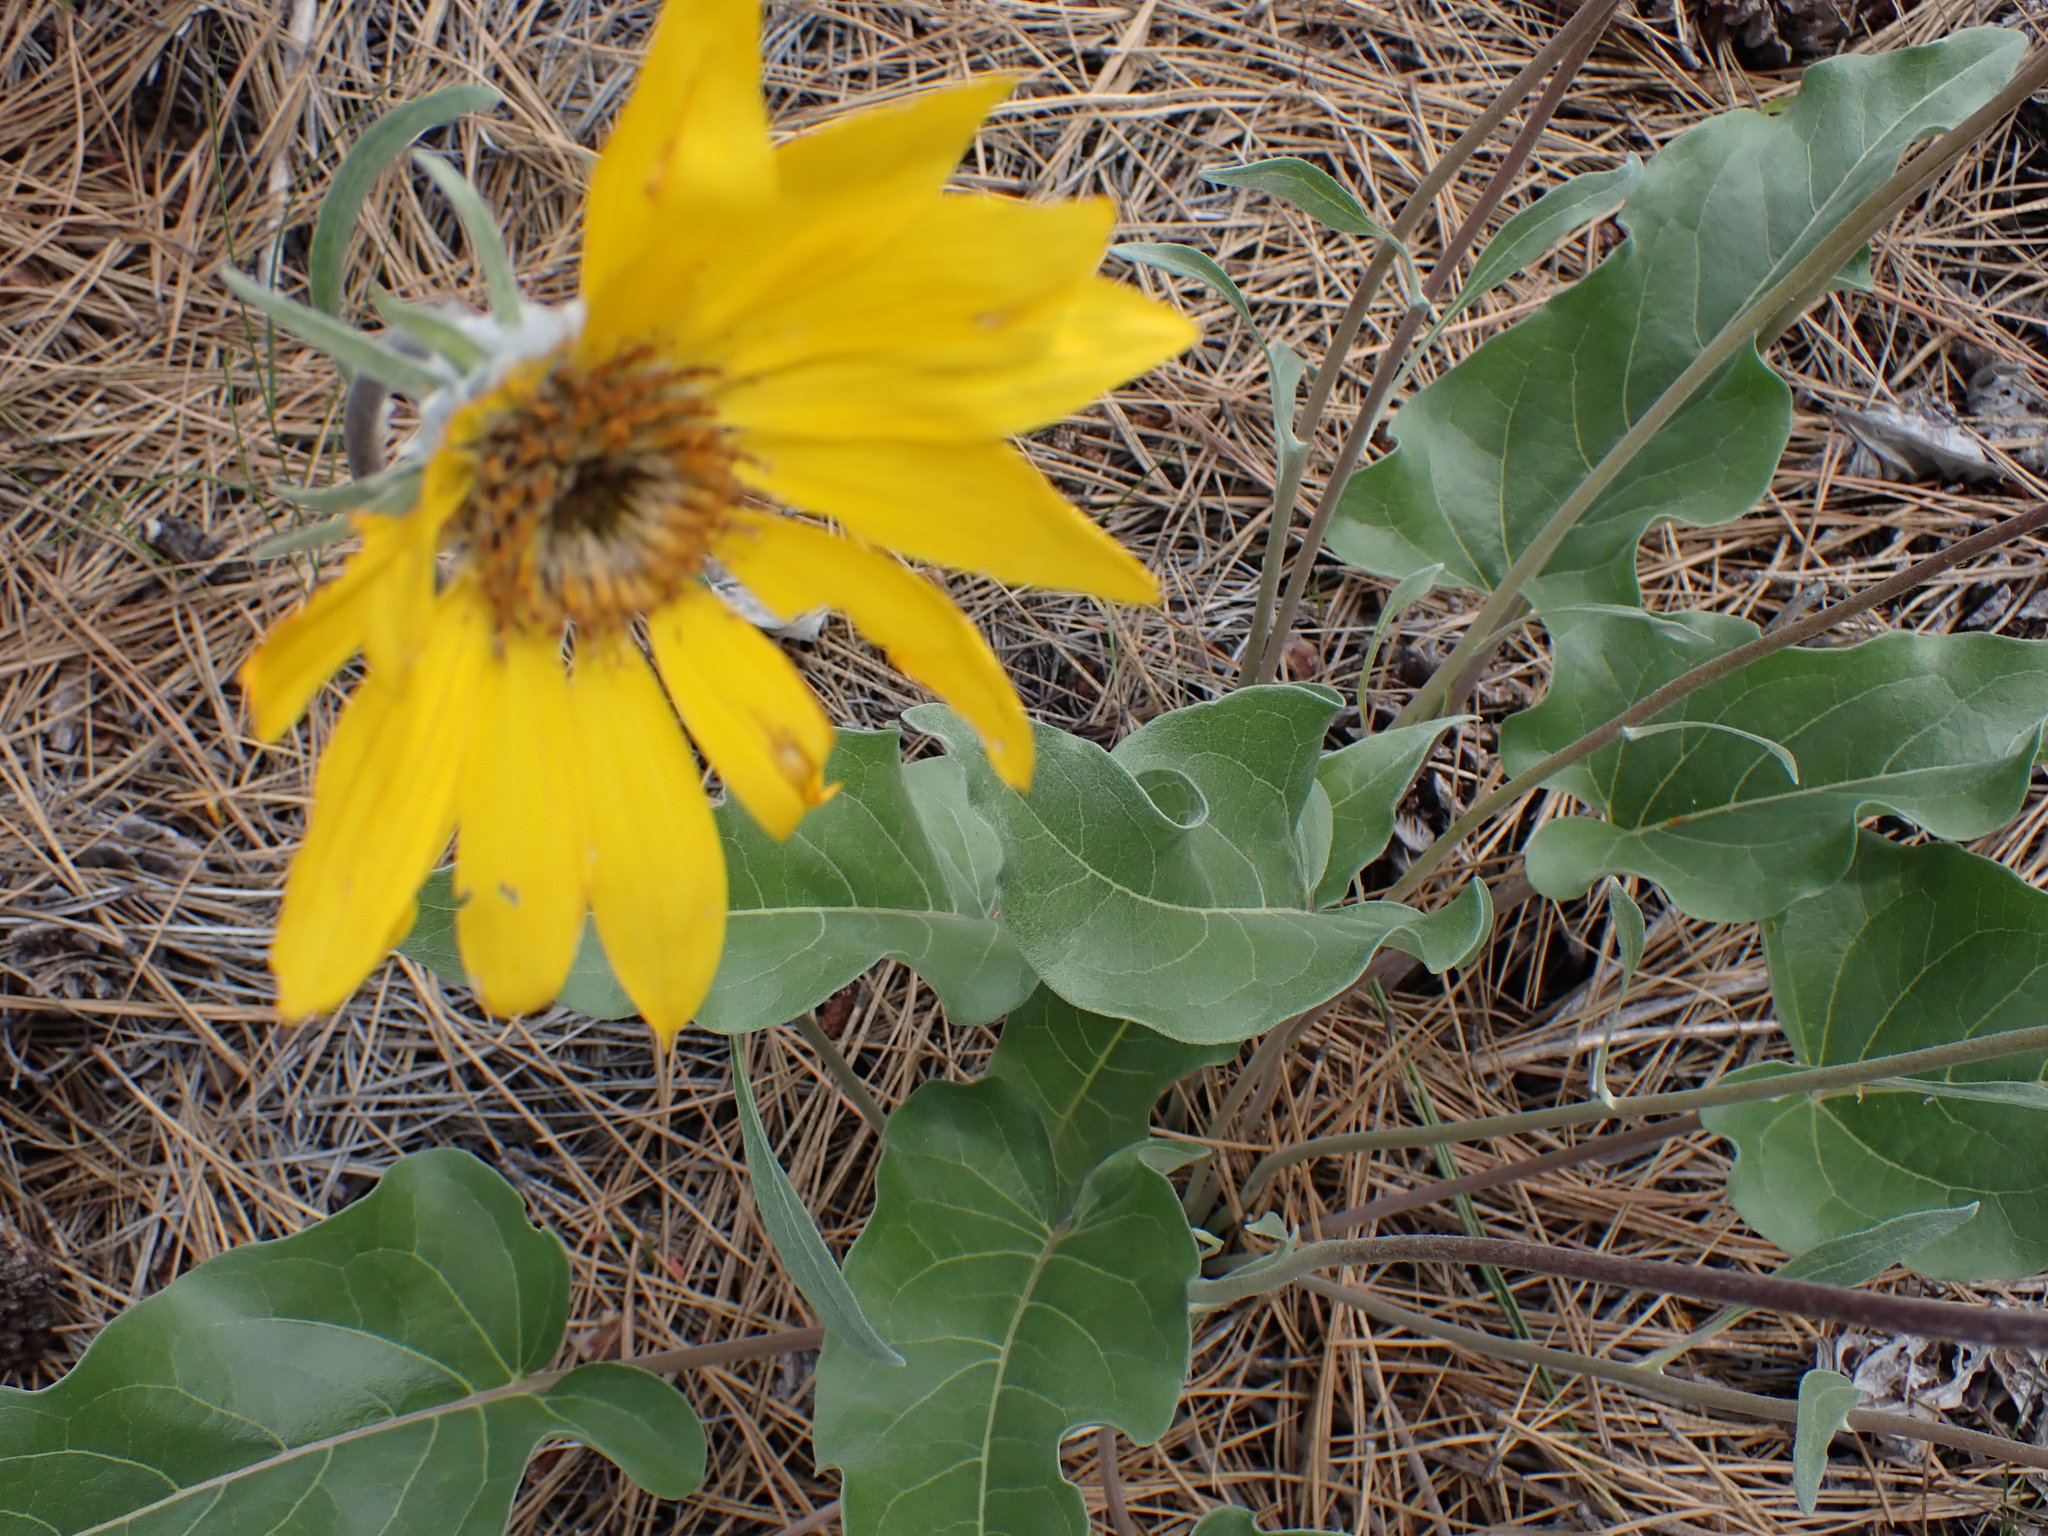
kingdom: Plantae
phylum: Tracheophyta
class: Magnoliopsida
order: Asterales
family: Asteraceae
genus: Wyethia
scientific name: Wyethia sagittata
